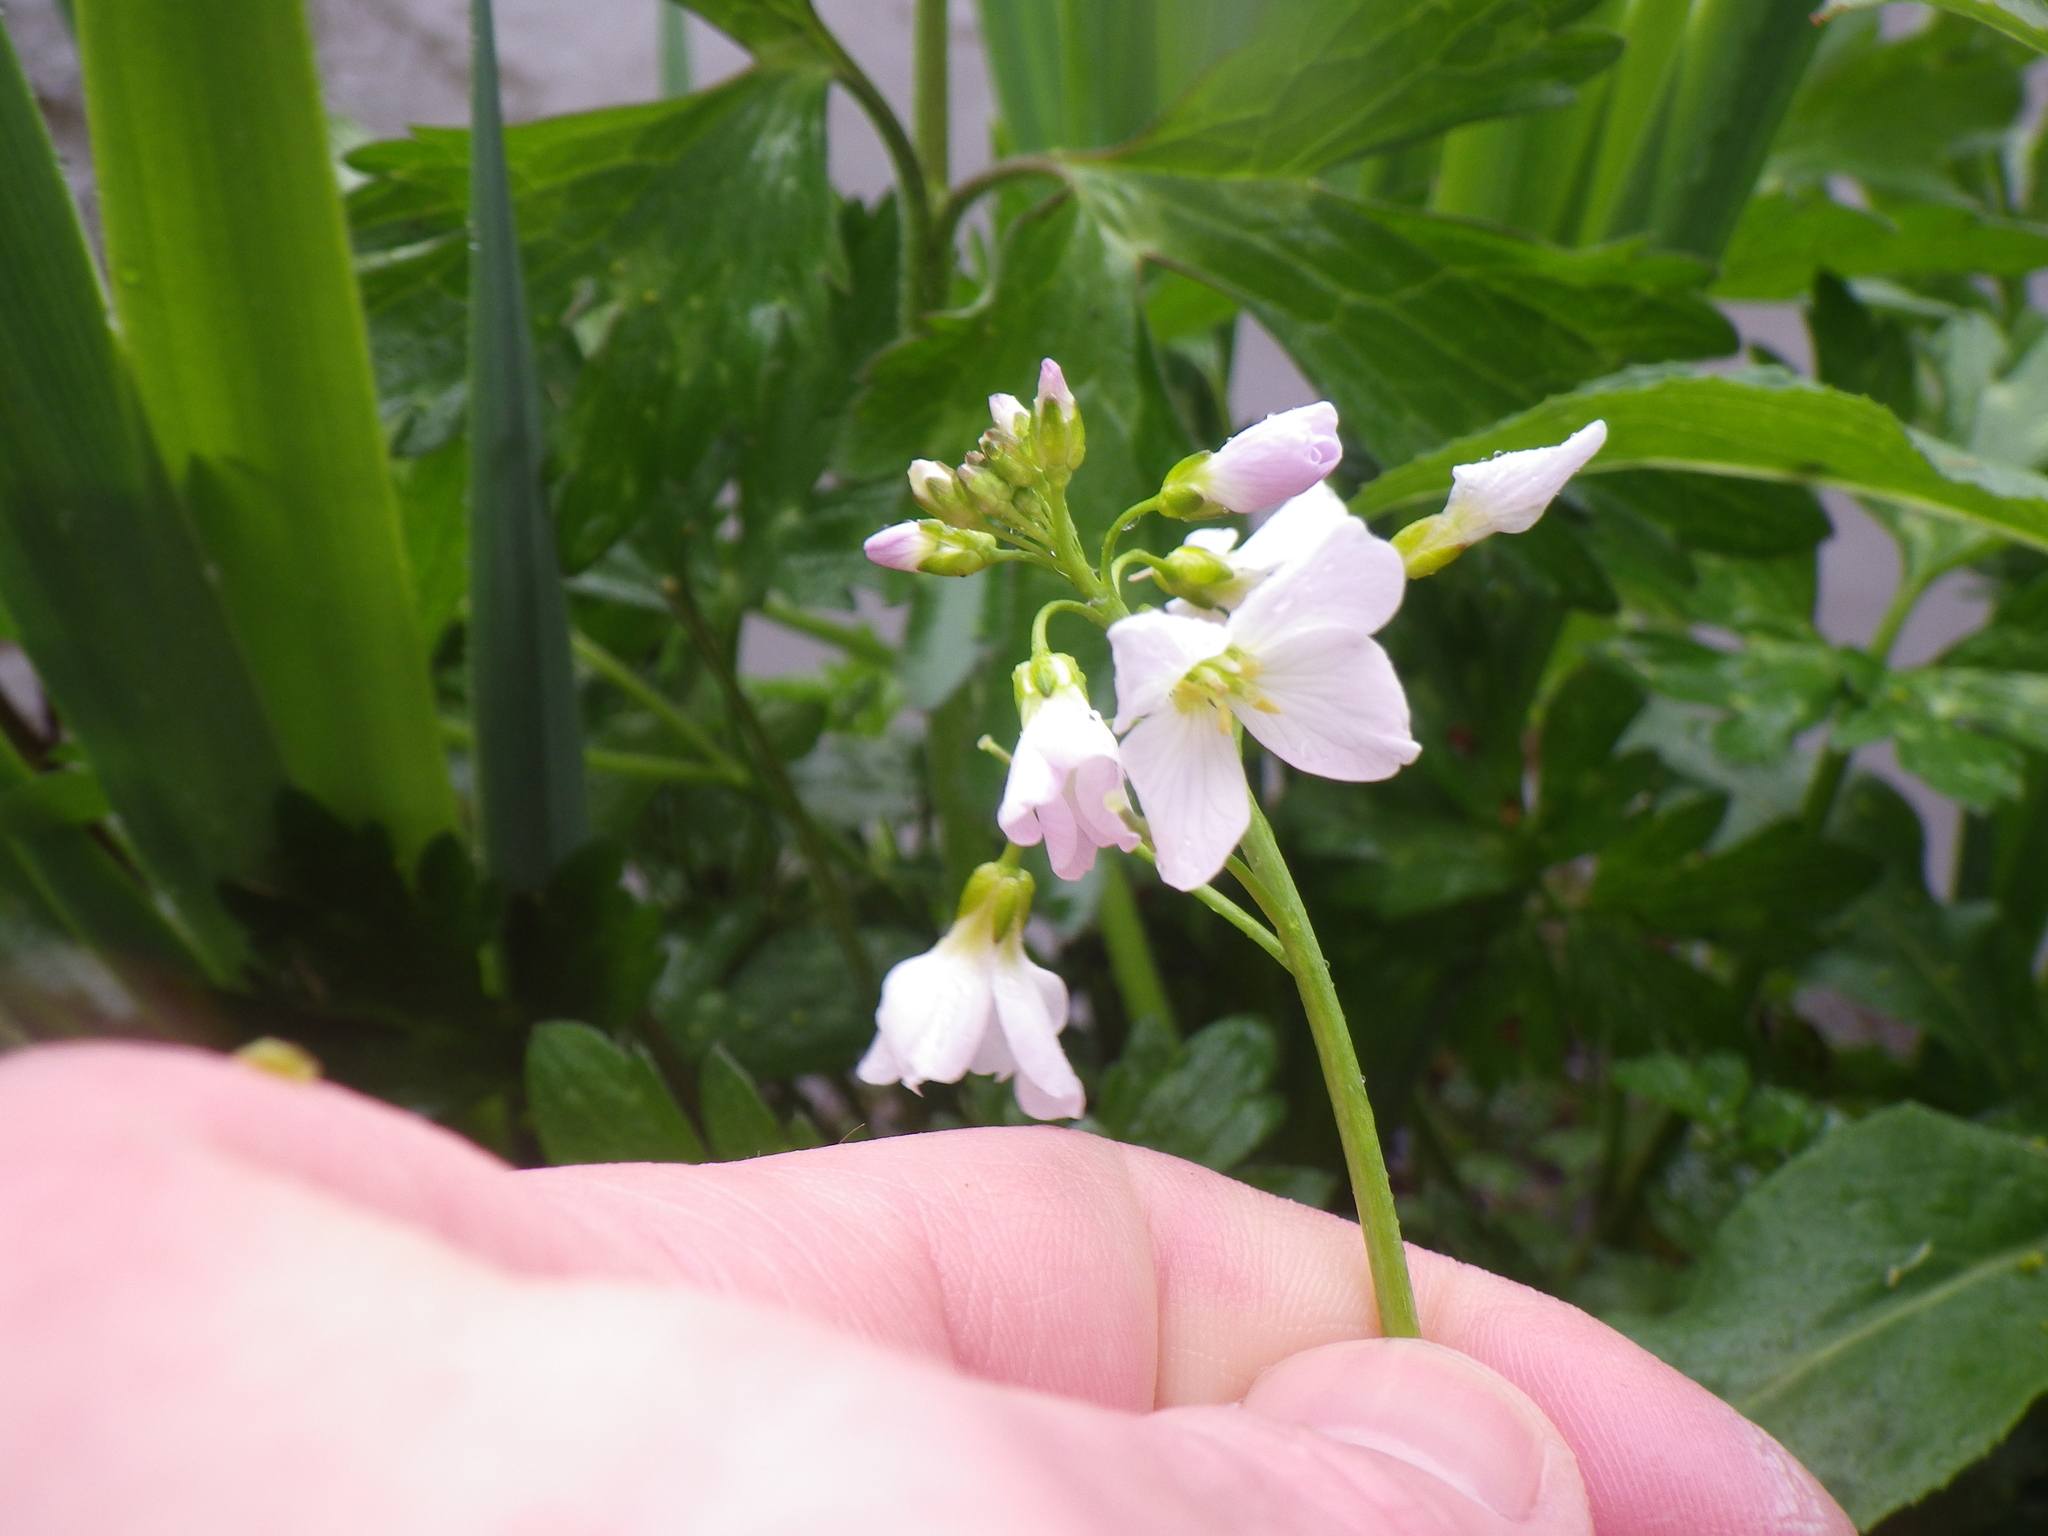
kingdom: Plantae
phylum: Tracheophyta
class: Magnoliopsida
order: Brassicales
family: Brassicaceae
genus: Cardamine
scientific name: Cardamine pratensis
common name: Cuckoo flower
